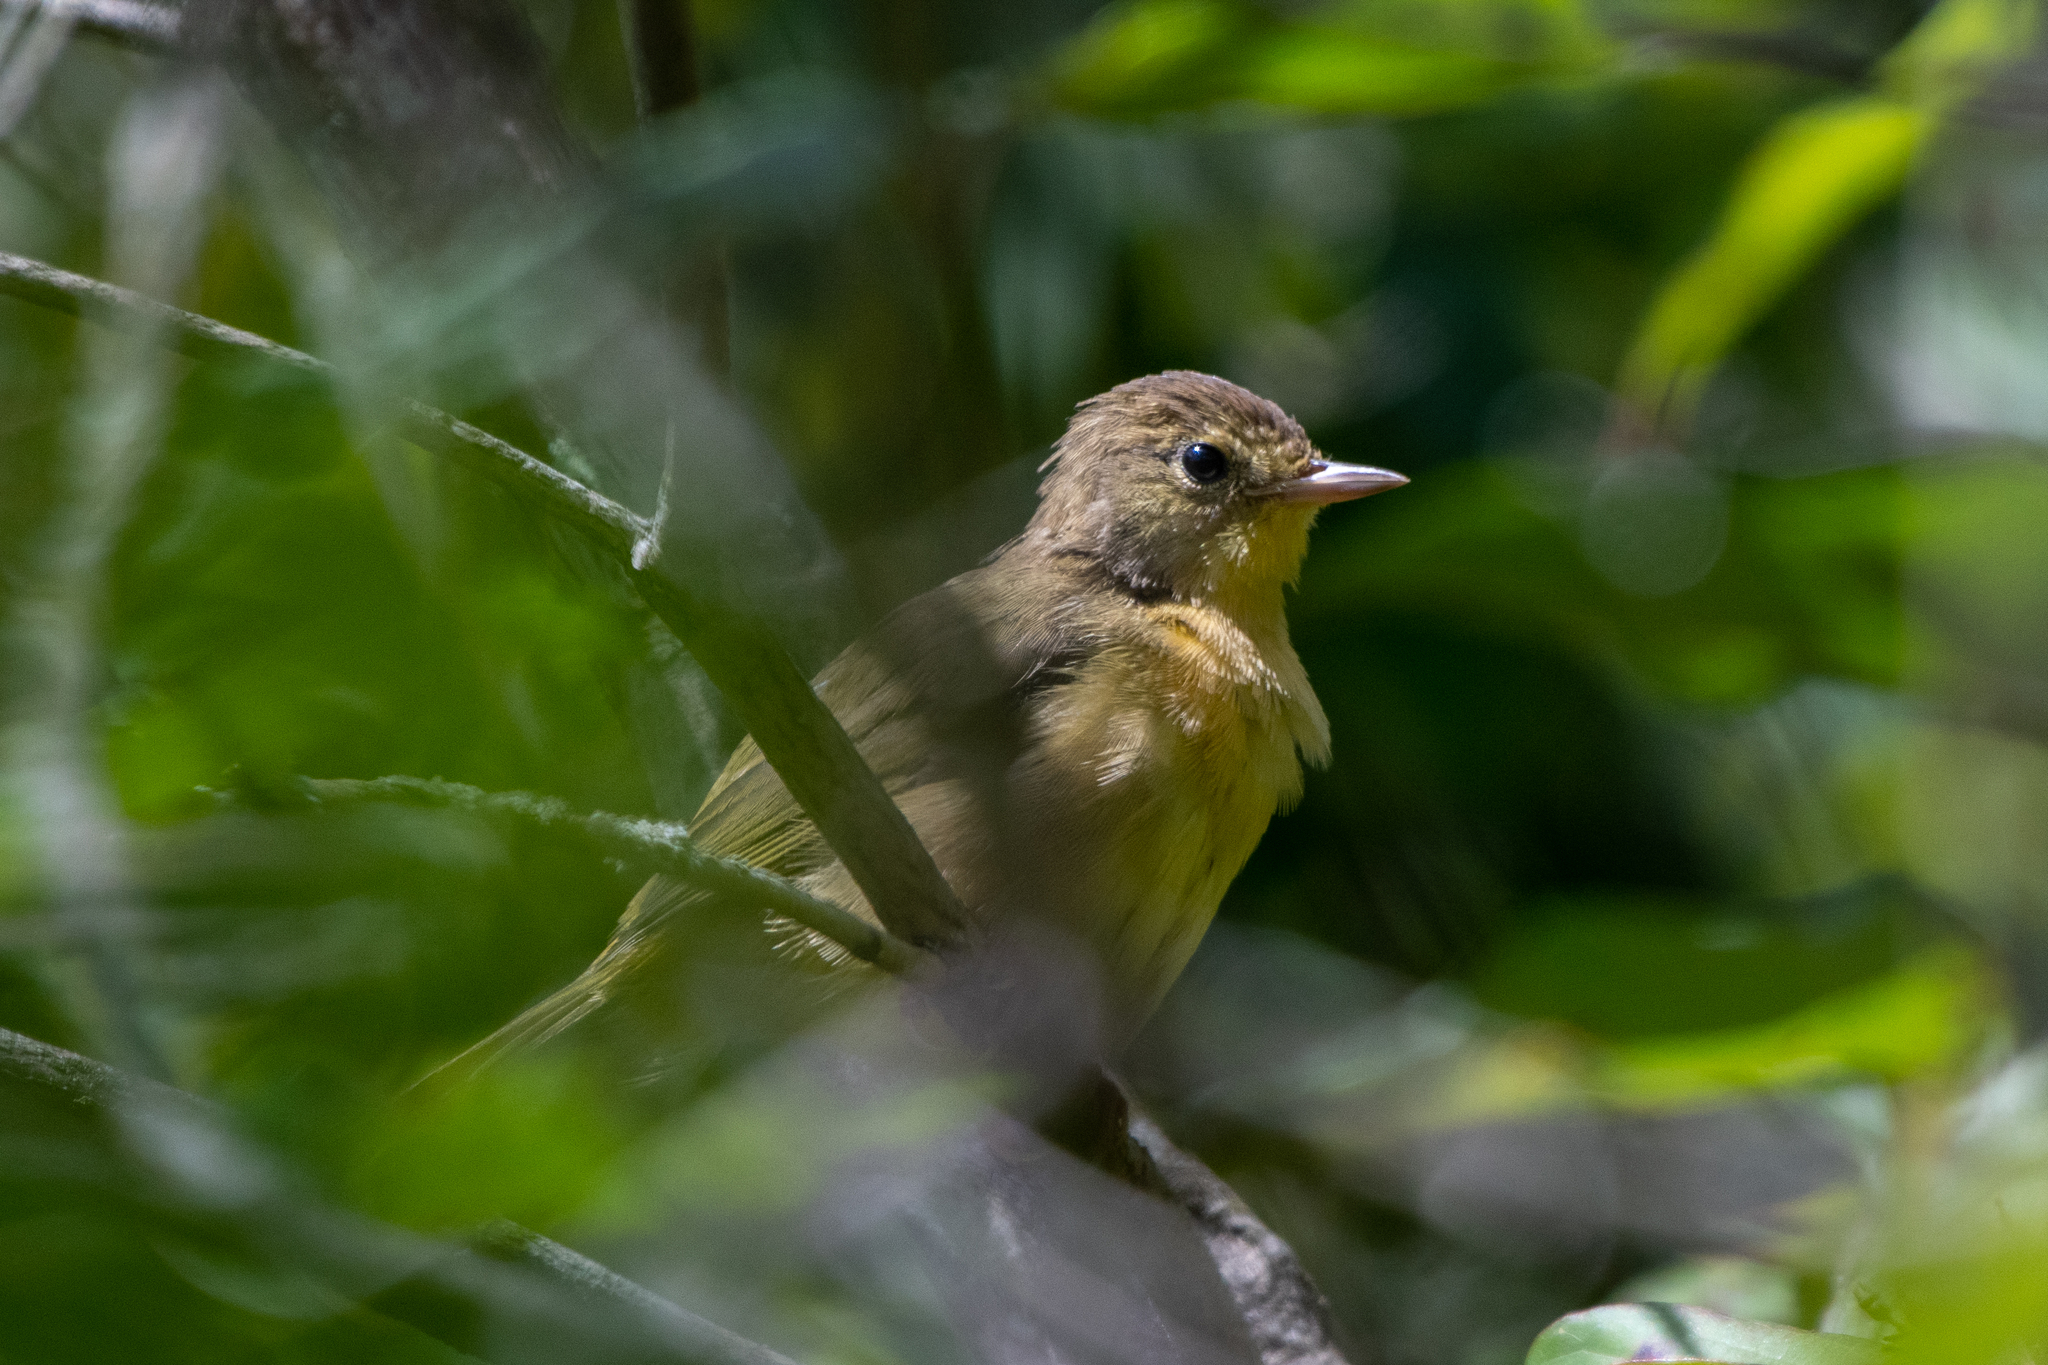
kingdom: Animalia
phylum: Chordata
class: Aves
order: Passeriformes
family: Parulidae
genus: Geothlypis
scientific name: Geothlypis trichas
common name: Common yellowthroat
